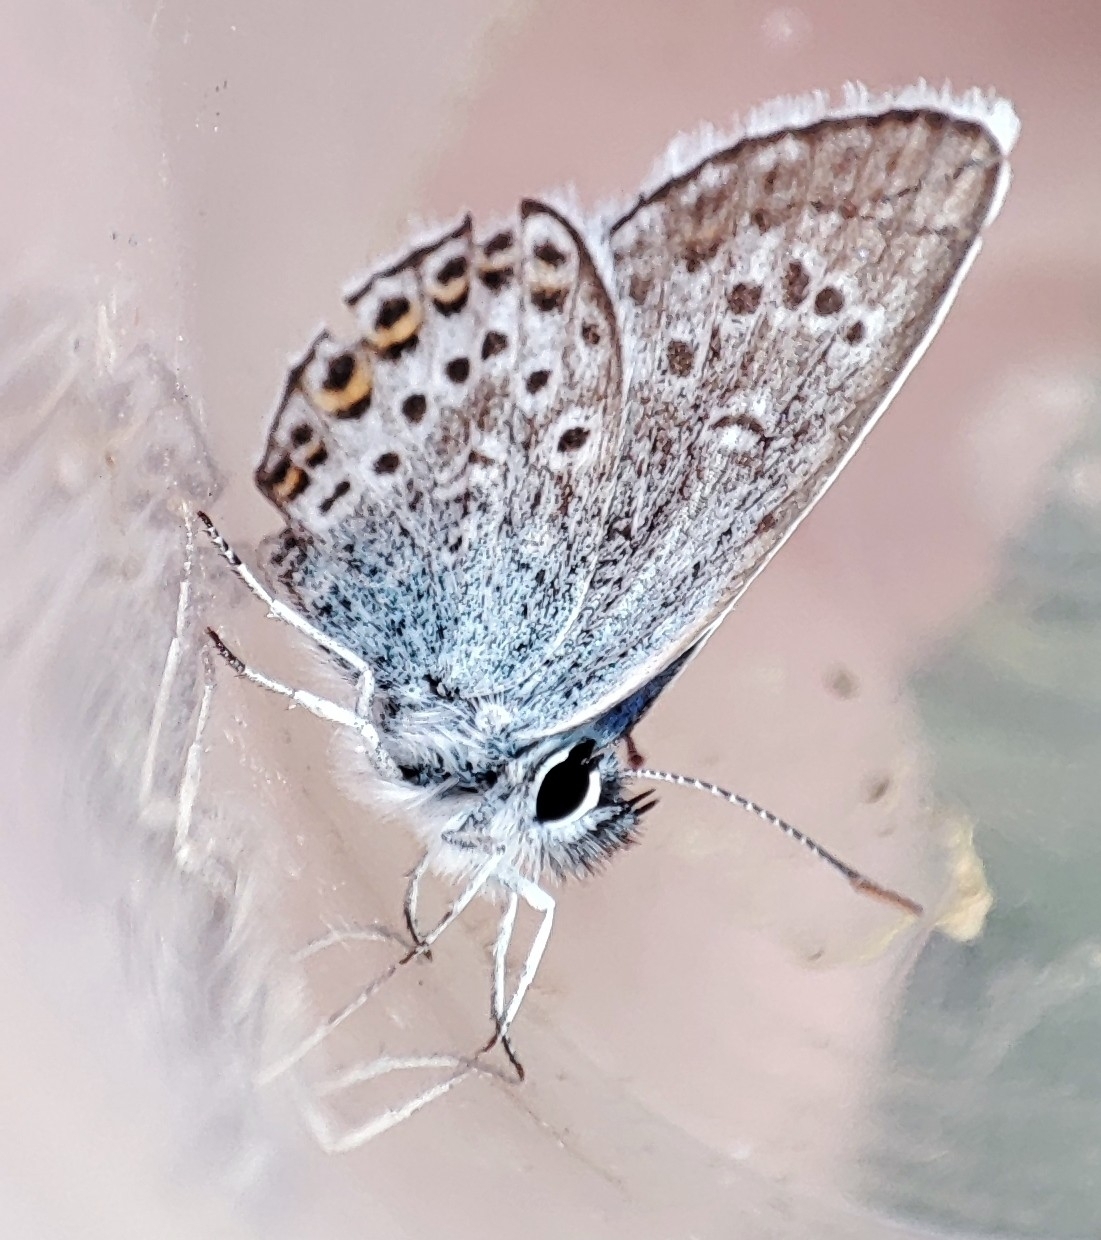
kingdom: Animalia
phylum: Arthropoda
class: Insecta
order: Lepidoptera
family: Lycaenidae
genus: Plebejus
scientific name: Plebejus argus
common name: Silver-studded blue
